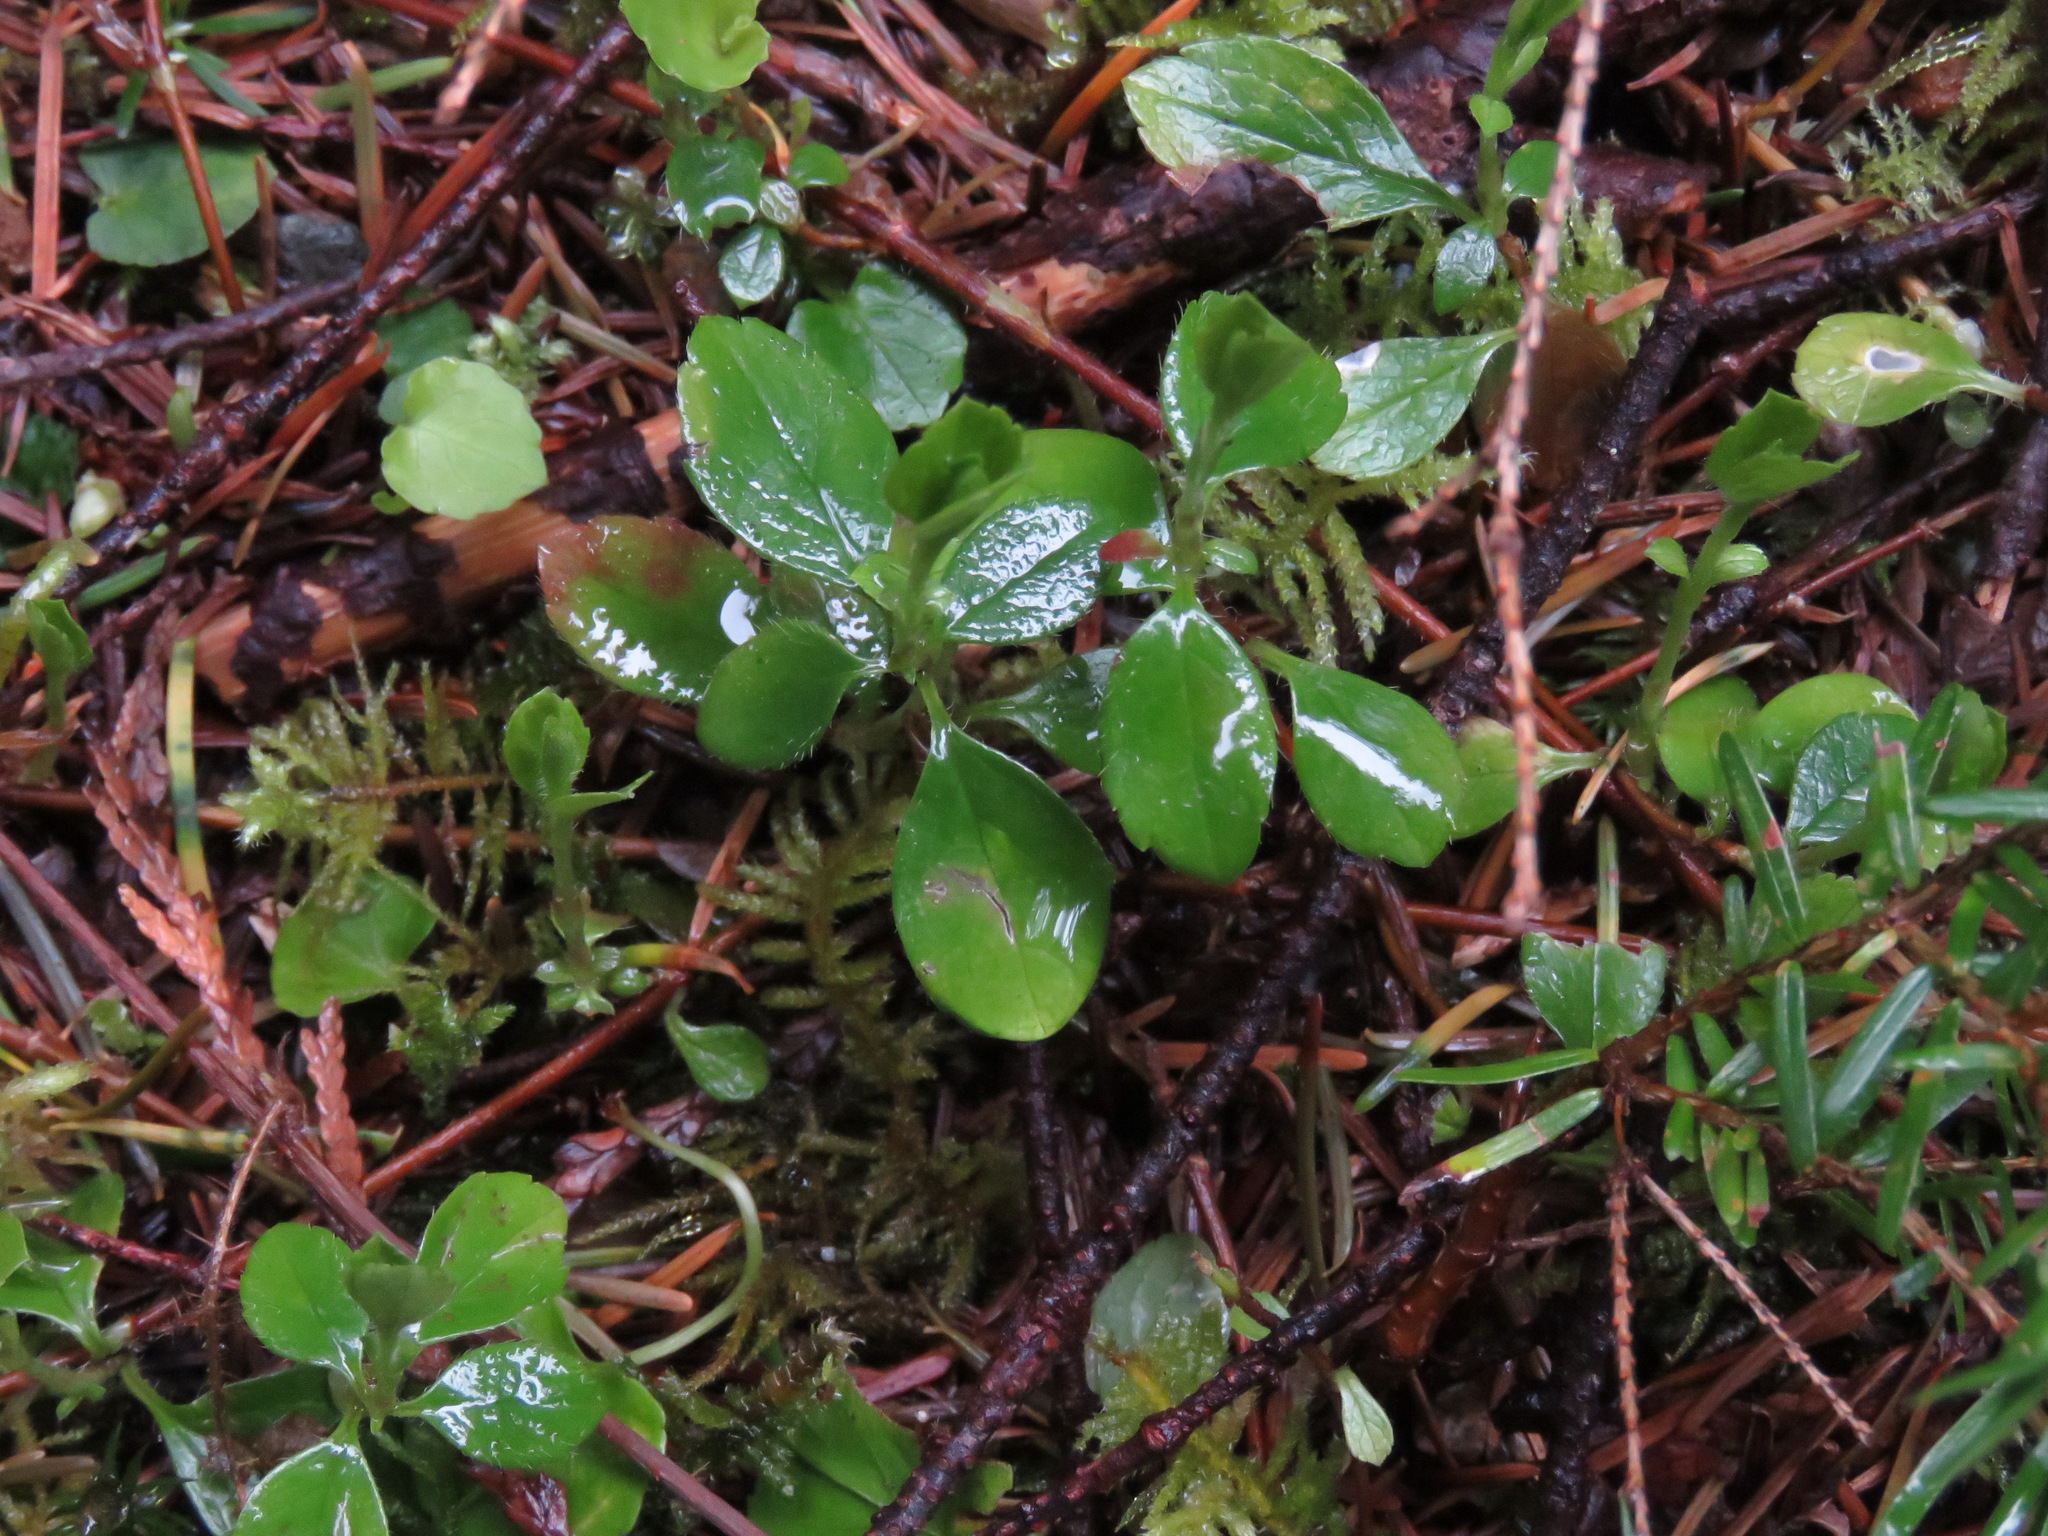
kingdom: Plantae
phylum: Tracheophyta
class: Magnoliopsida
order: Dipsacales
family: Caprifoliaceae
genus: Linnaea
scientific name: Linnaea borealis
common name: Twinflower
